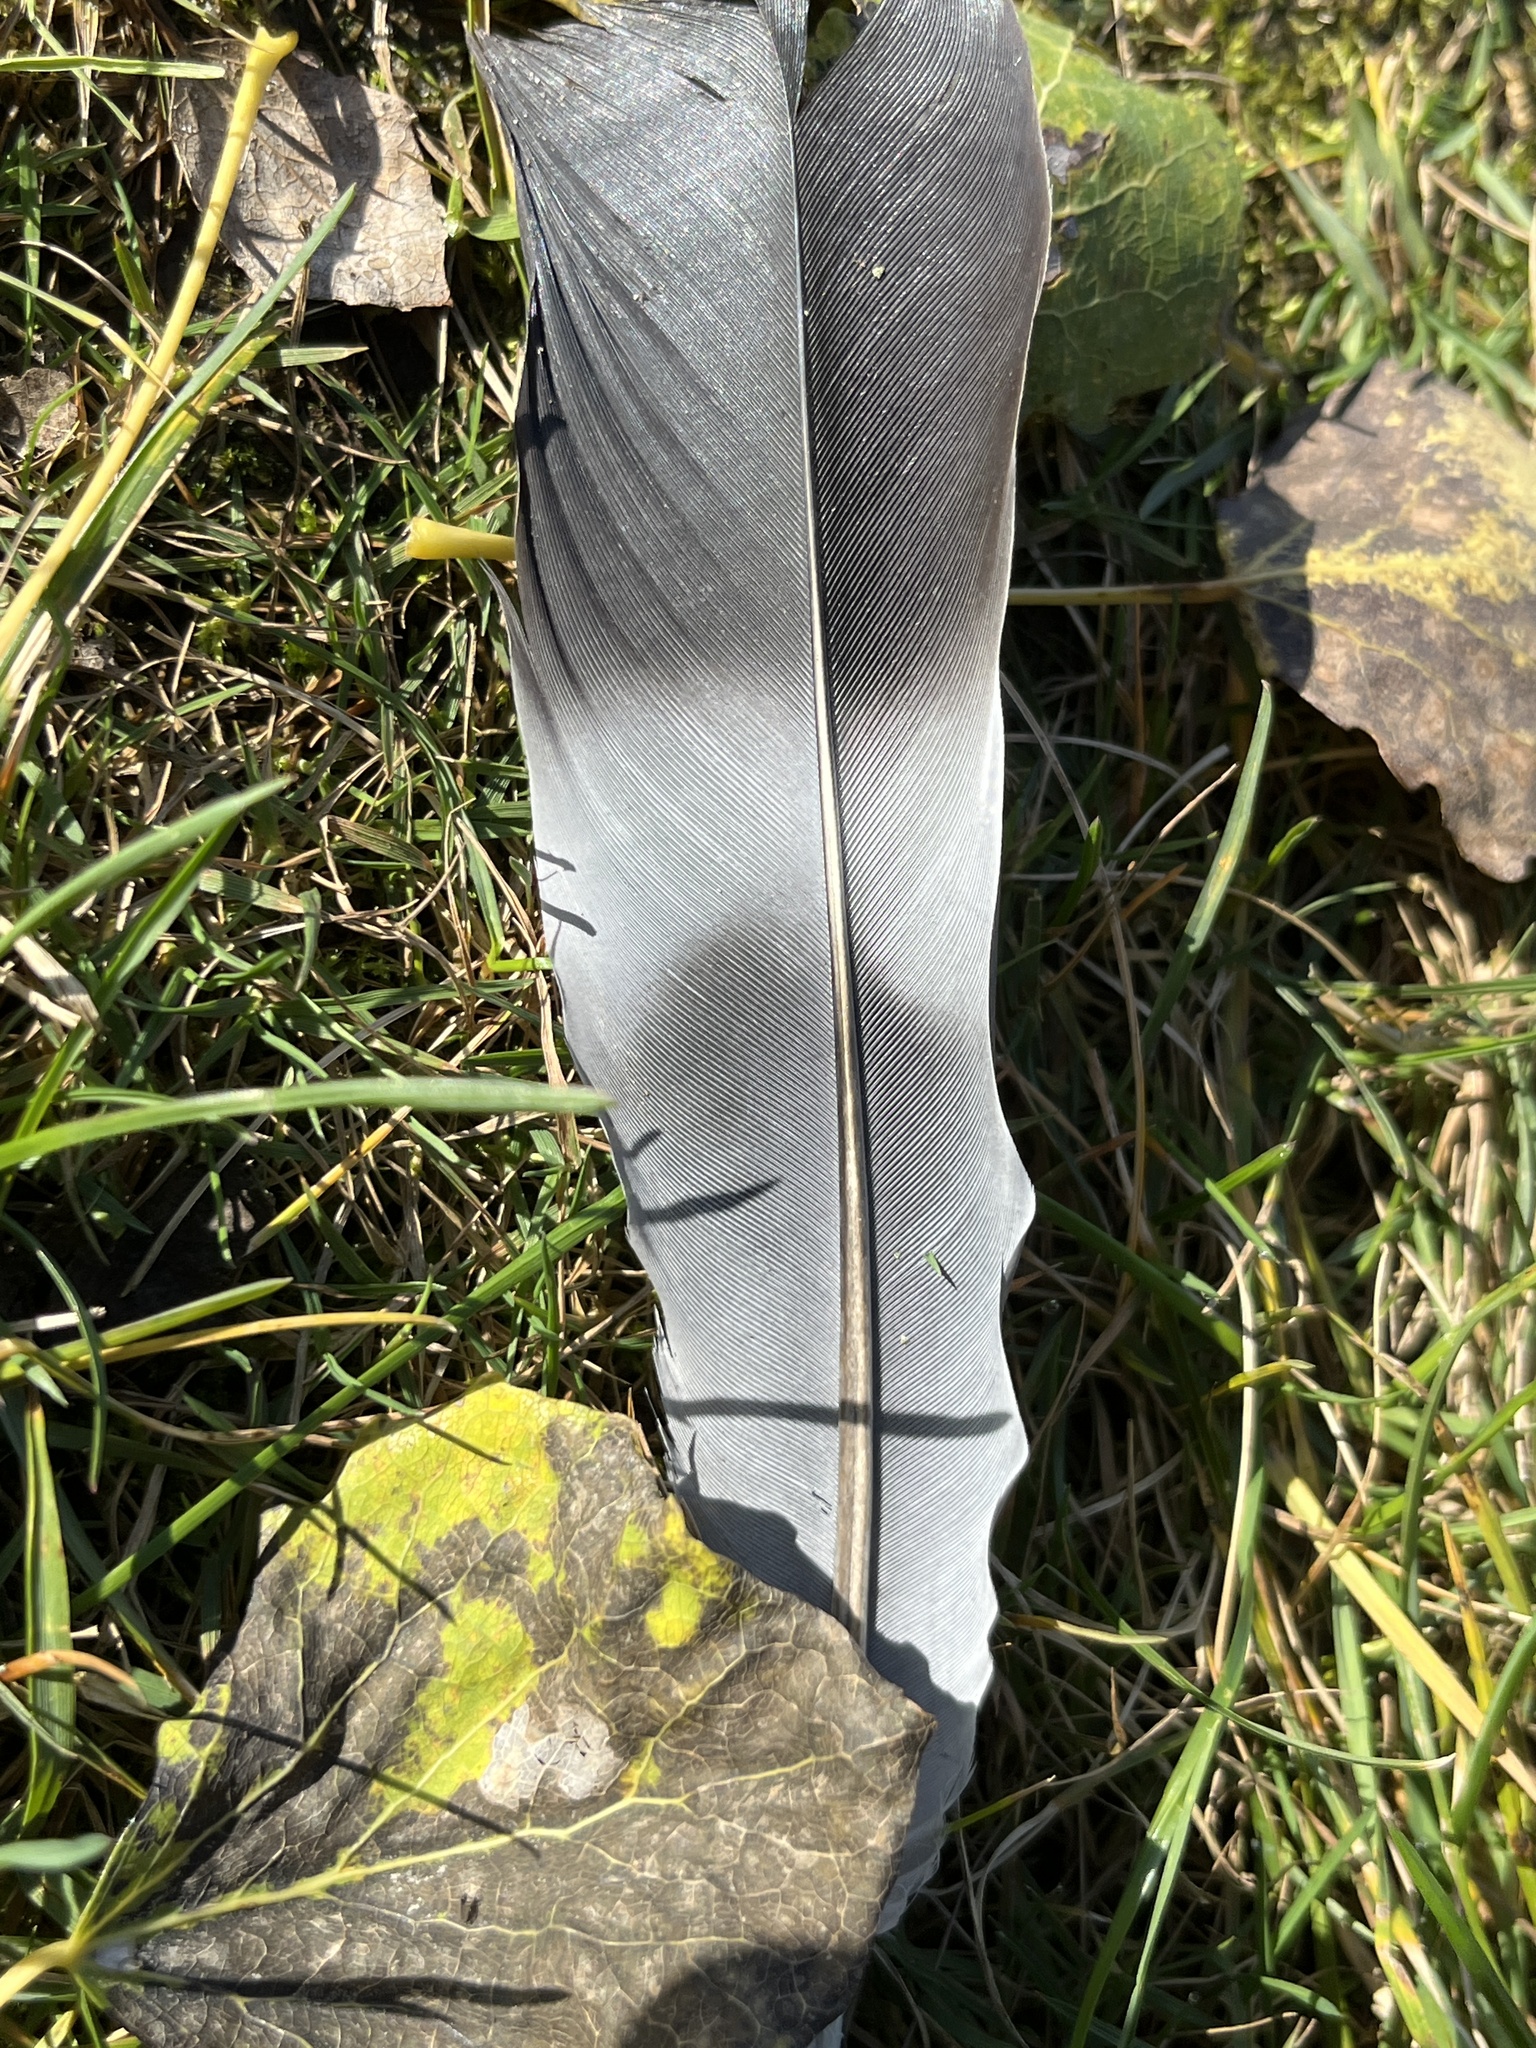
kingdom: Animalia
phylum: Chordata
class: Aves
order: Columbiformes
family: Columbidae
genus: Columba
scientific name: Columba palumbus
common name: Common wood pigeon
